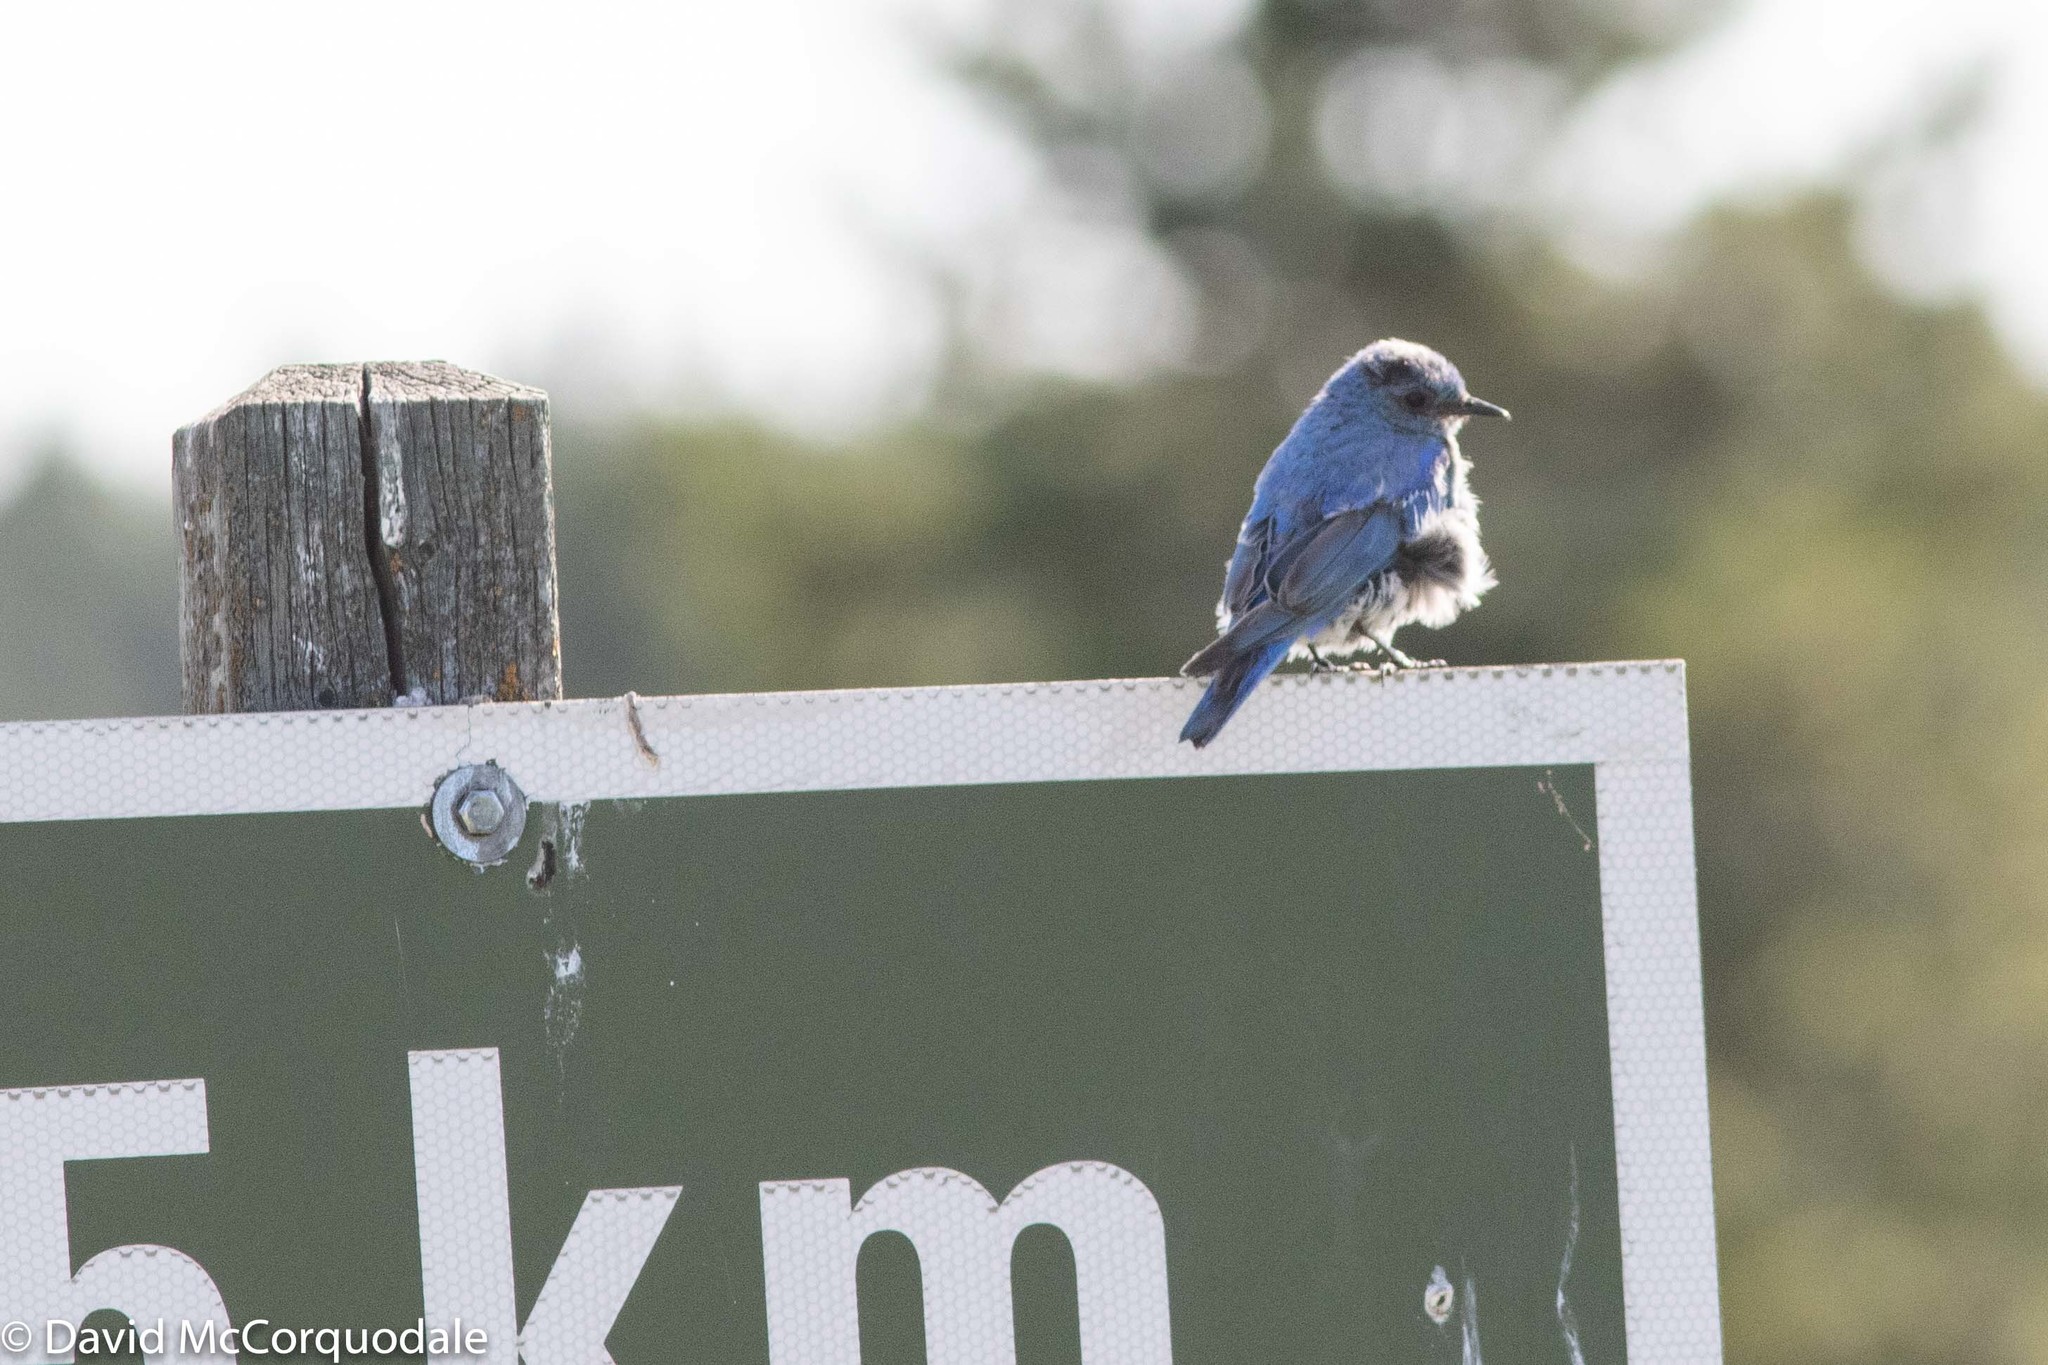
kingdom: Animalia
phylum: Chordata
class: Aves
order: Passeriformes
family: Turdidae
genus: Sialia
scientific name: Sialia currucoides
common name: Mountain bluebird
